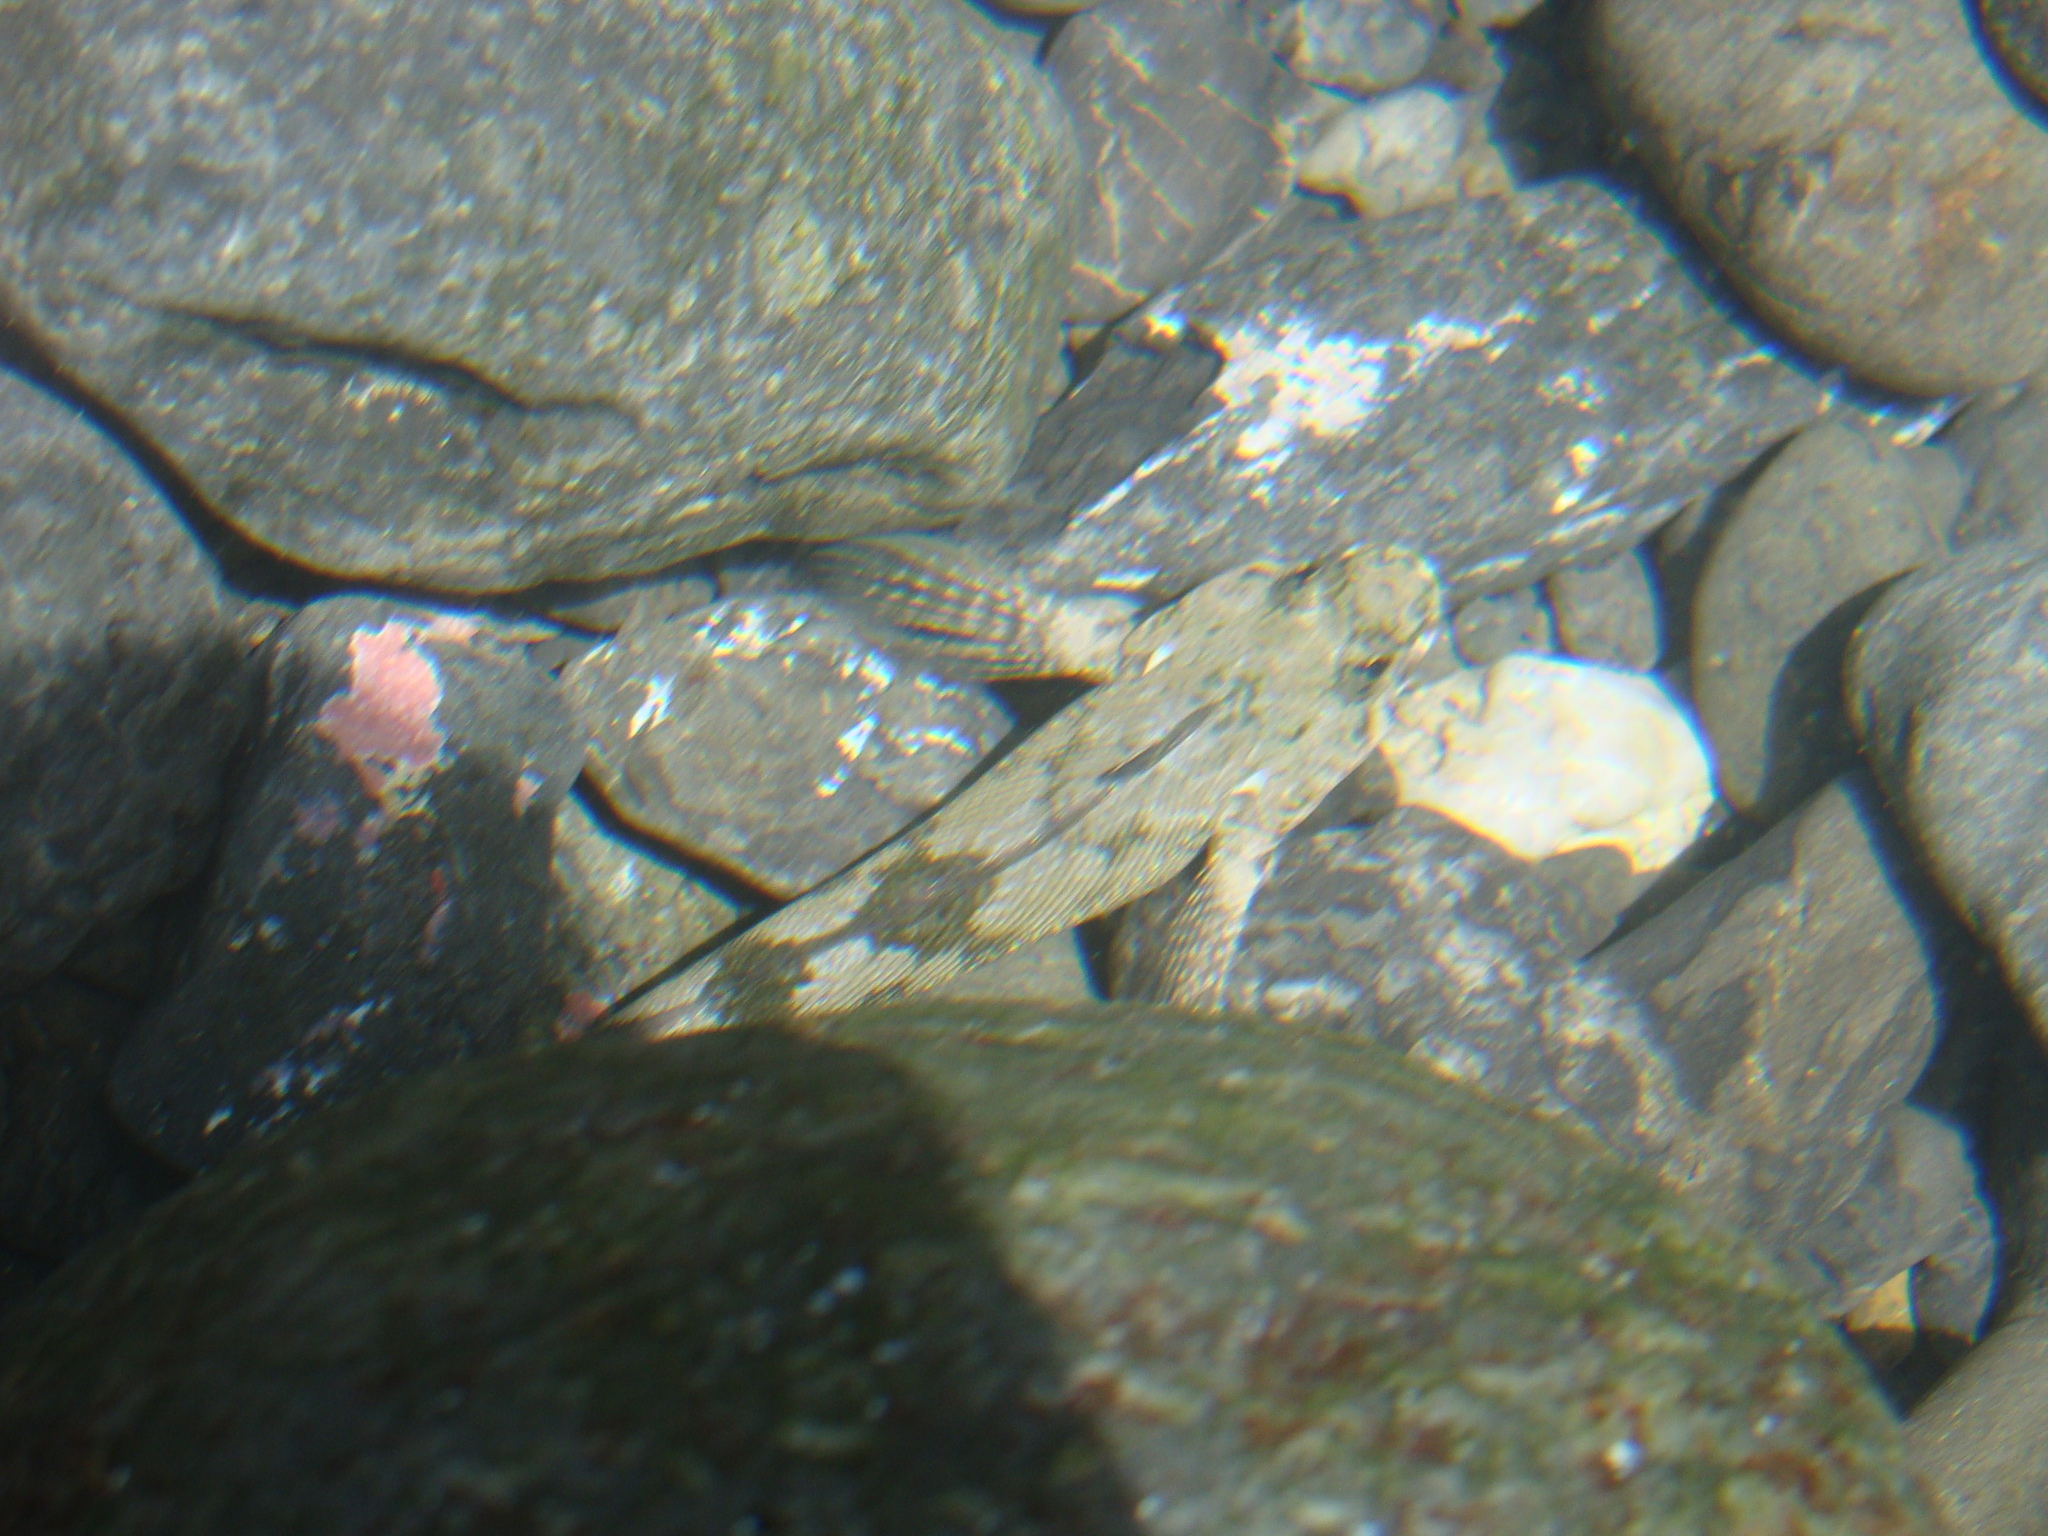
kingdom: Animalia
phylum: Chordata
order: Perciformes
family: Tripterygiidae
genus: Bellapiscis
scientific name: Bellapiscis medius
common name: Twister
